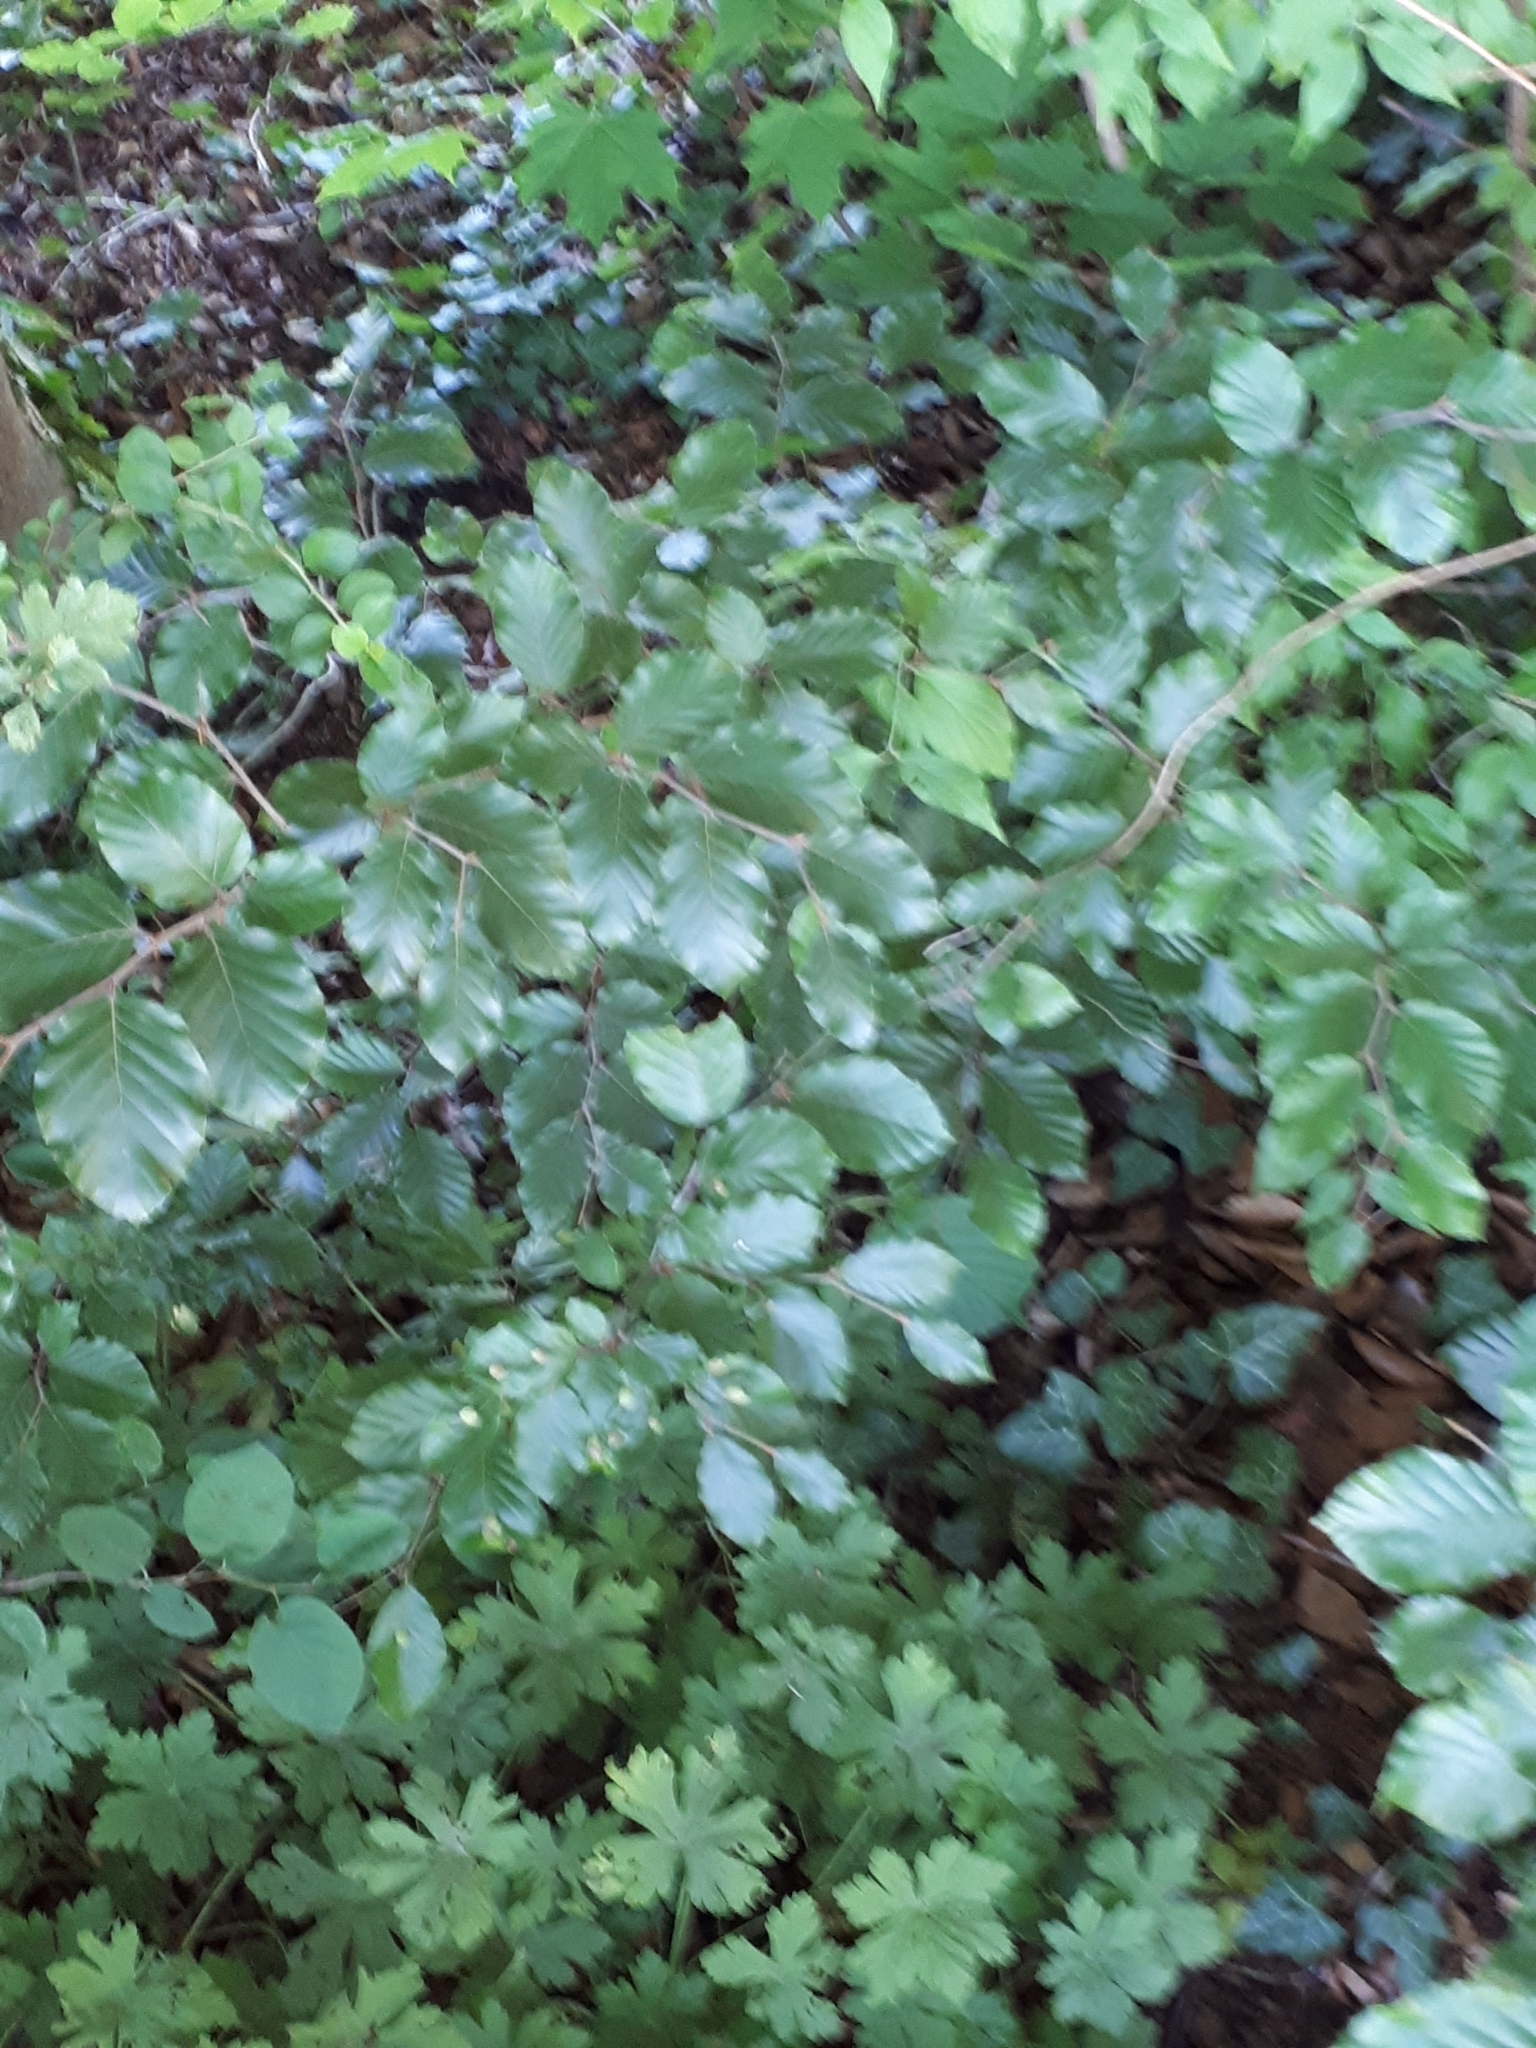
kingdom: Plantae
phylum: Tracheophyta
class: Magnoliopsida
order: Fagales
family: Fagaceae
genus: Fagus
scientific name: Fagus sylvatica
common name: Beech
